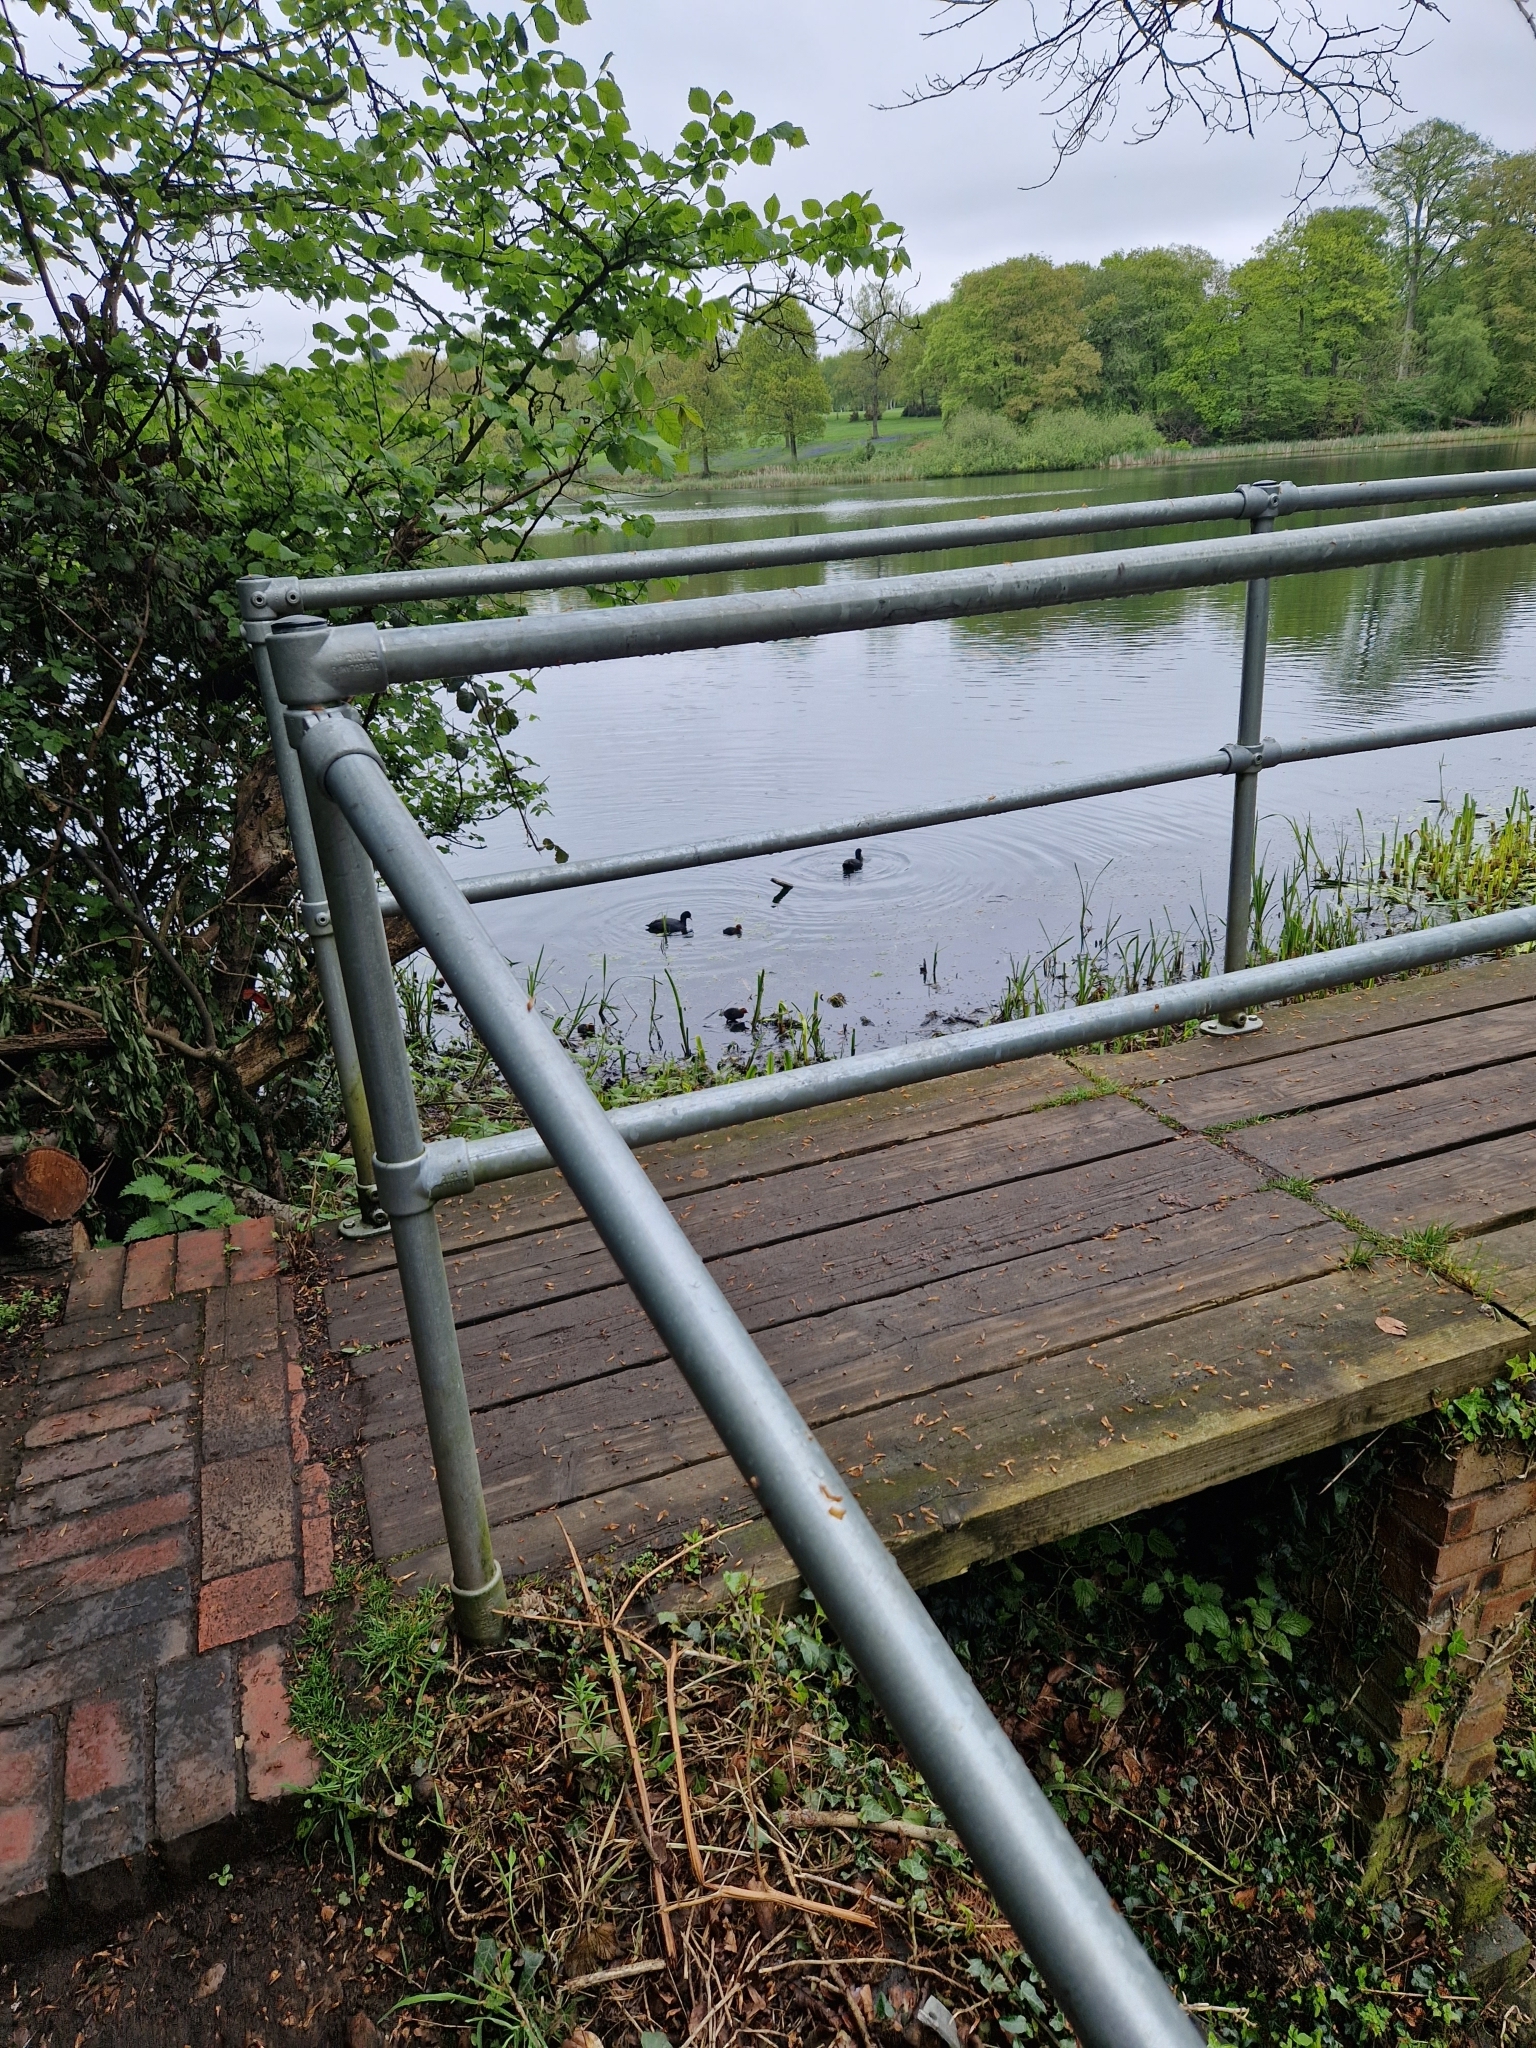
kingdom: Animalia
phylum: Chordata
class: Aves
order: Gruiformes
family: Rallidae
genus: Fulica
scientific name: Fulica atra
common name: Eurasian coot
